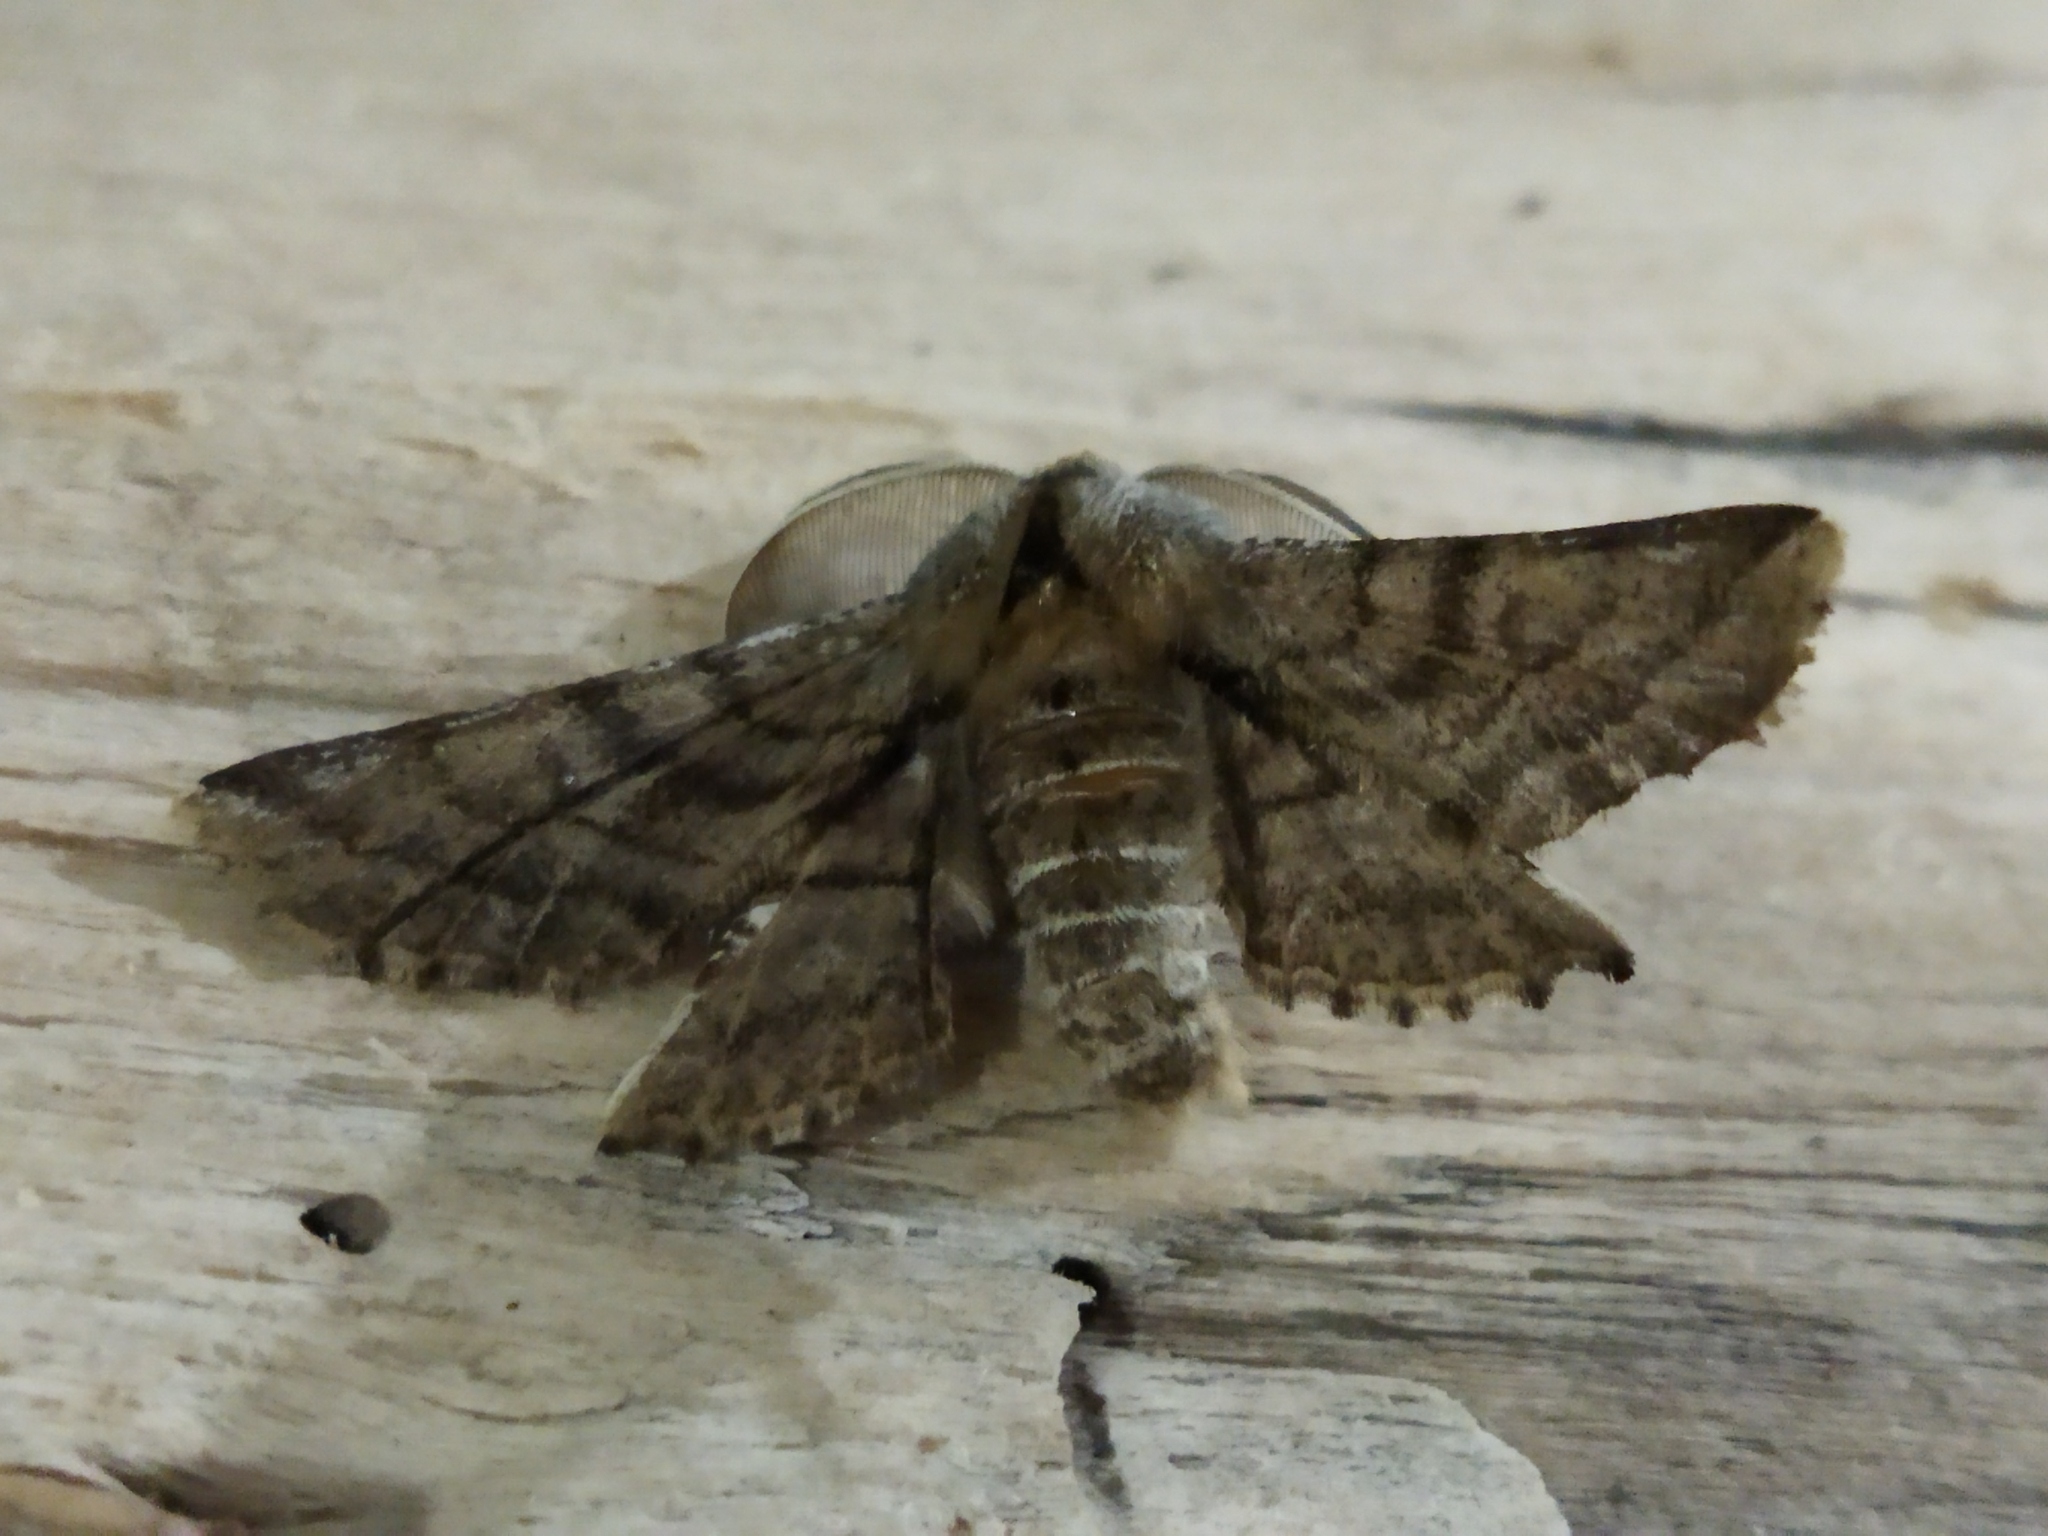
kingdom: Animalia
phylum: Arthropoda
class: Insecta
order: Lepidoptera
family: Geometridae
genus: Apochima
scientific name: Apochima flabellaria
